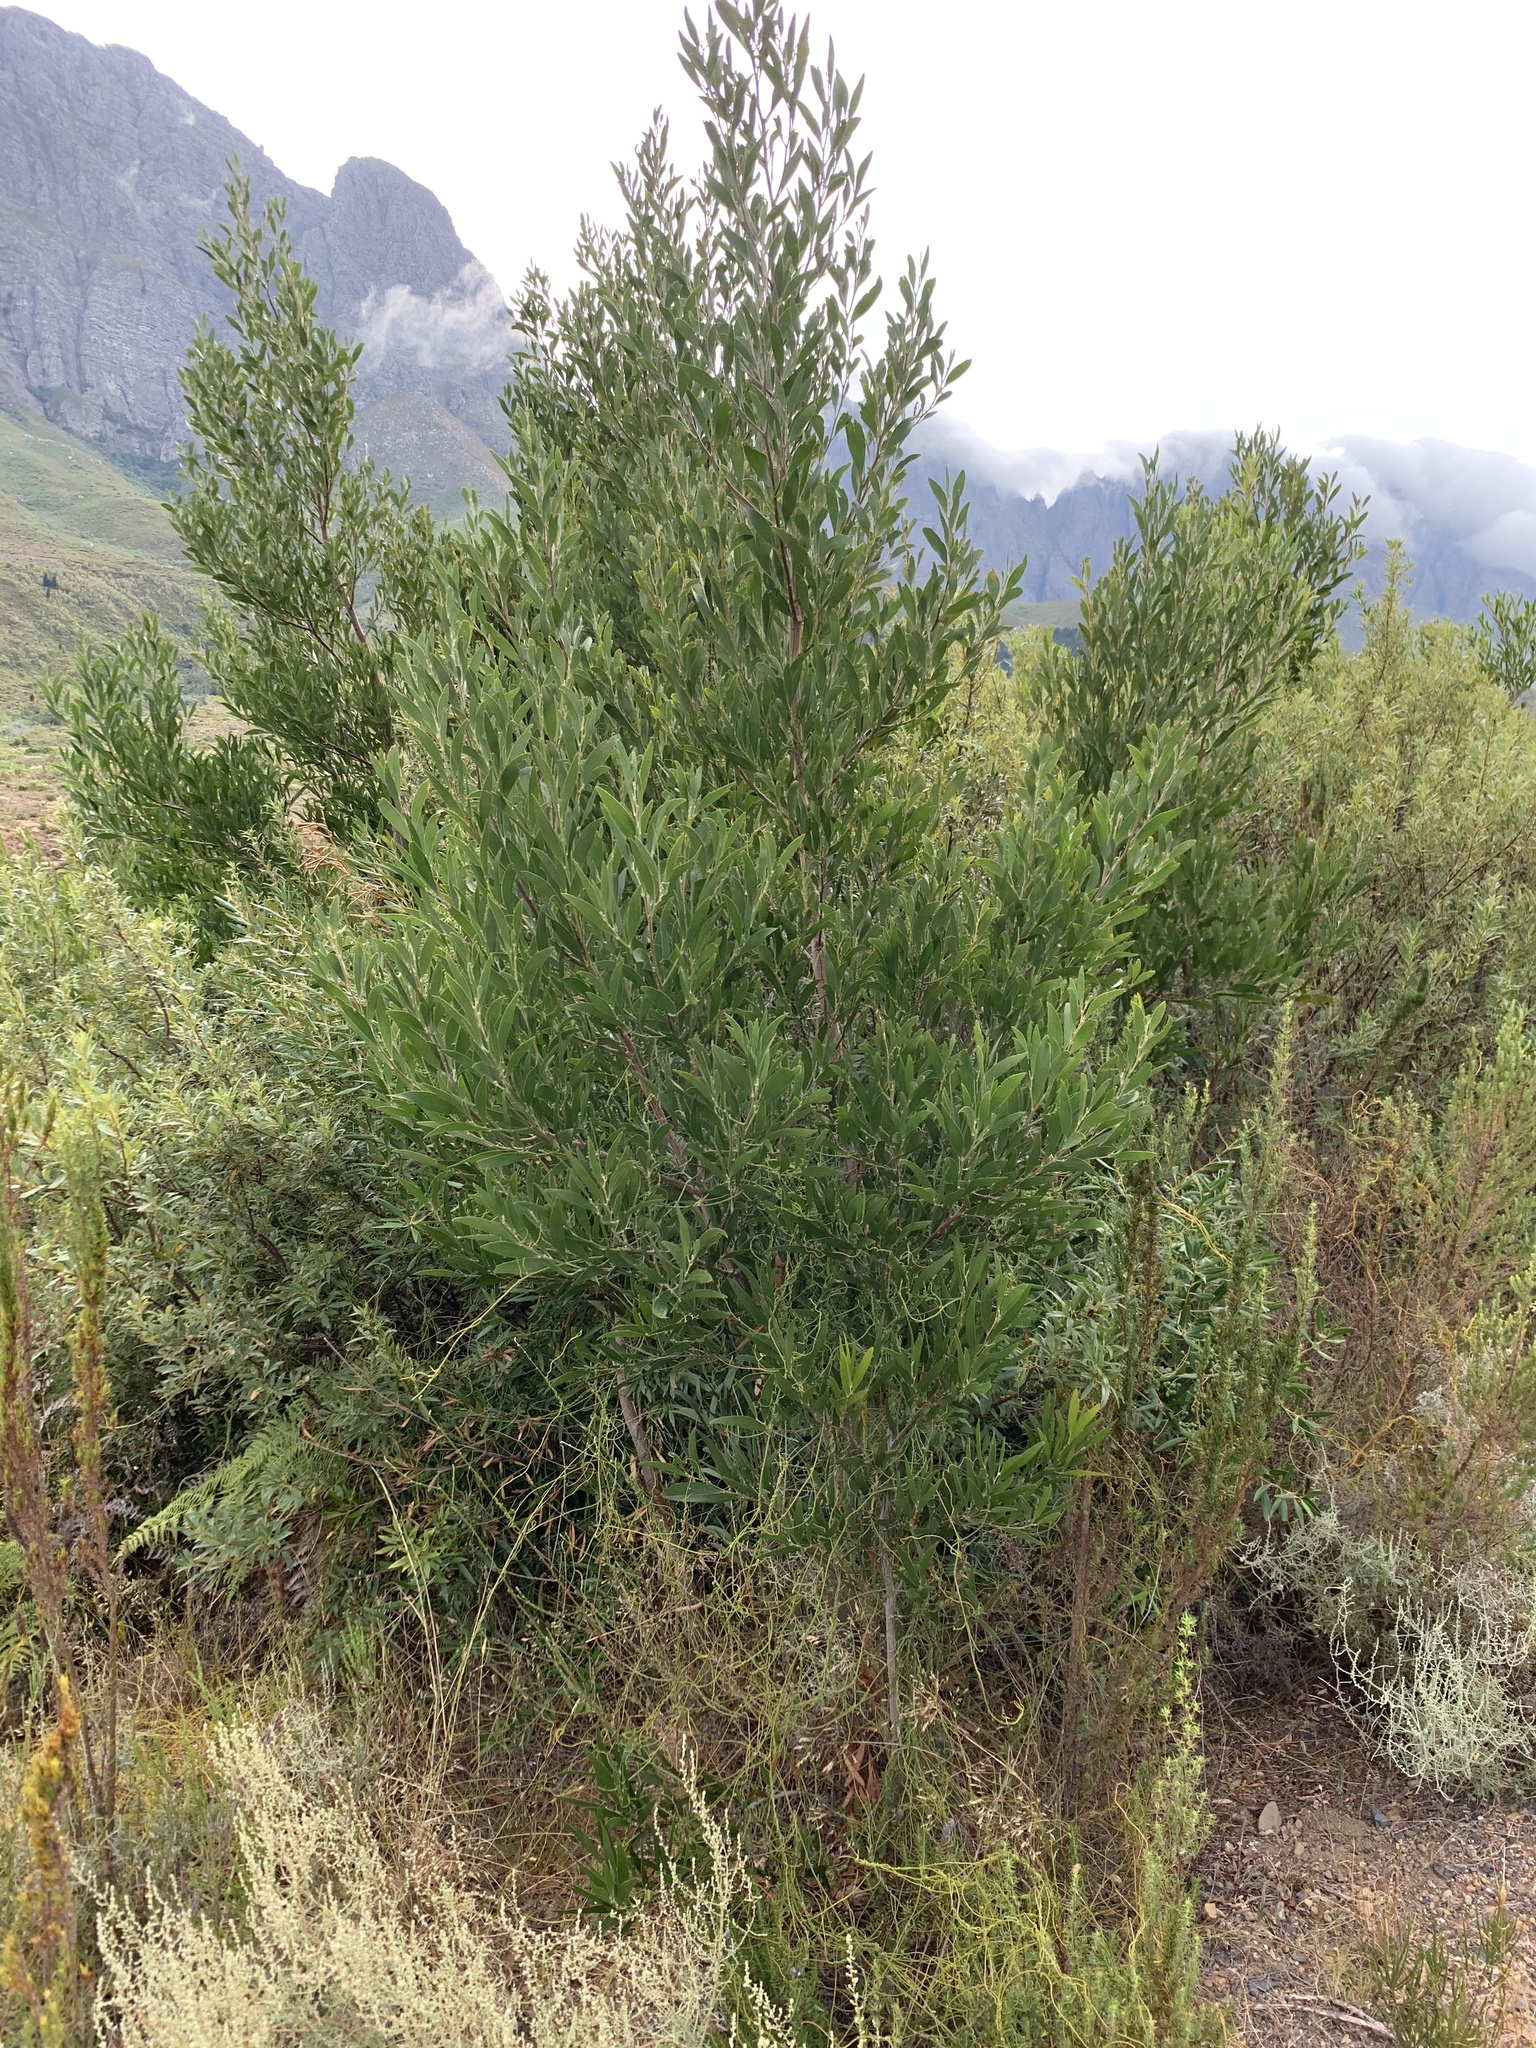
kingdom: Plantae
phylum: Tracheophyta
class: Magnoliopsida
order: Fabales
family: Fabaceae
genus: Acacia
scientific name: Acacia melanoxylon
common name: Blackwood
